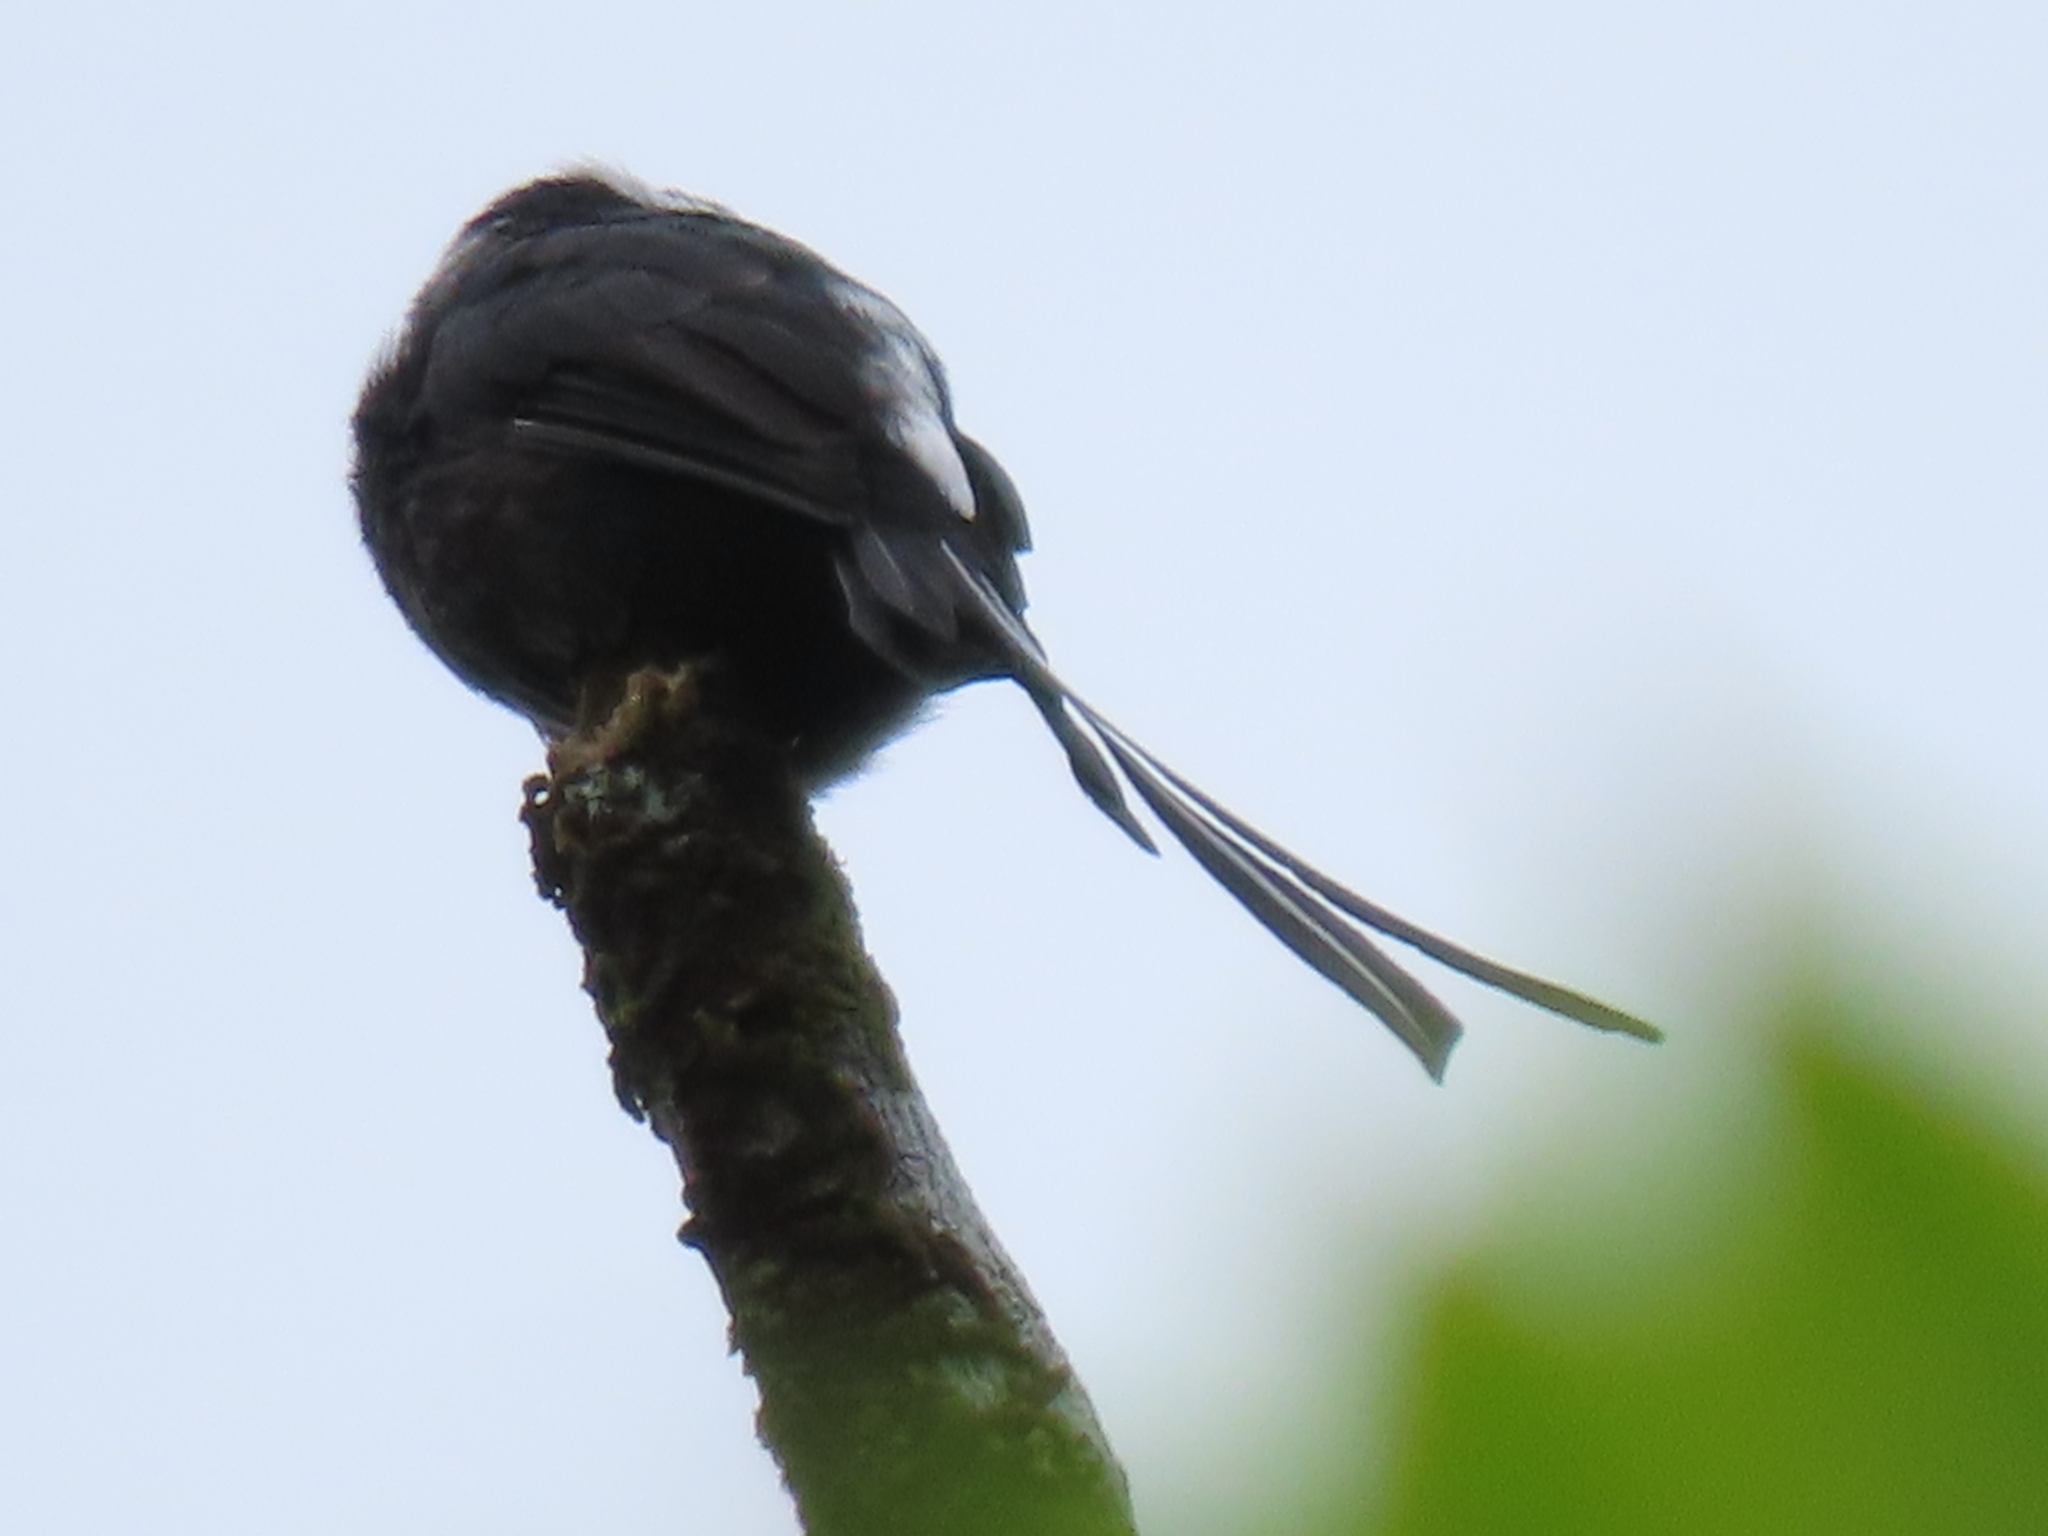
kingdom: Animalia
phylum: Chordata
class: Aves
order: Passeriformes
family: Tyrannidae
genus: Colonia
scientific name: Colonia colonus
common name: Long-tailed tyrant
